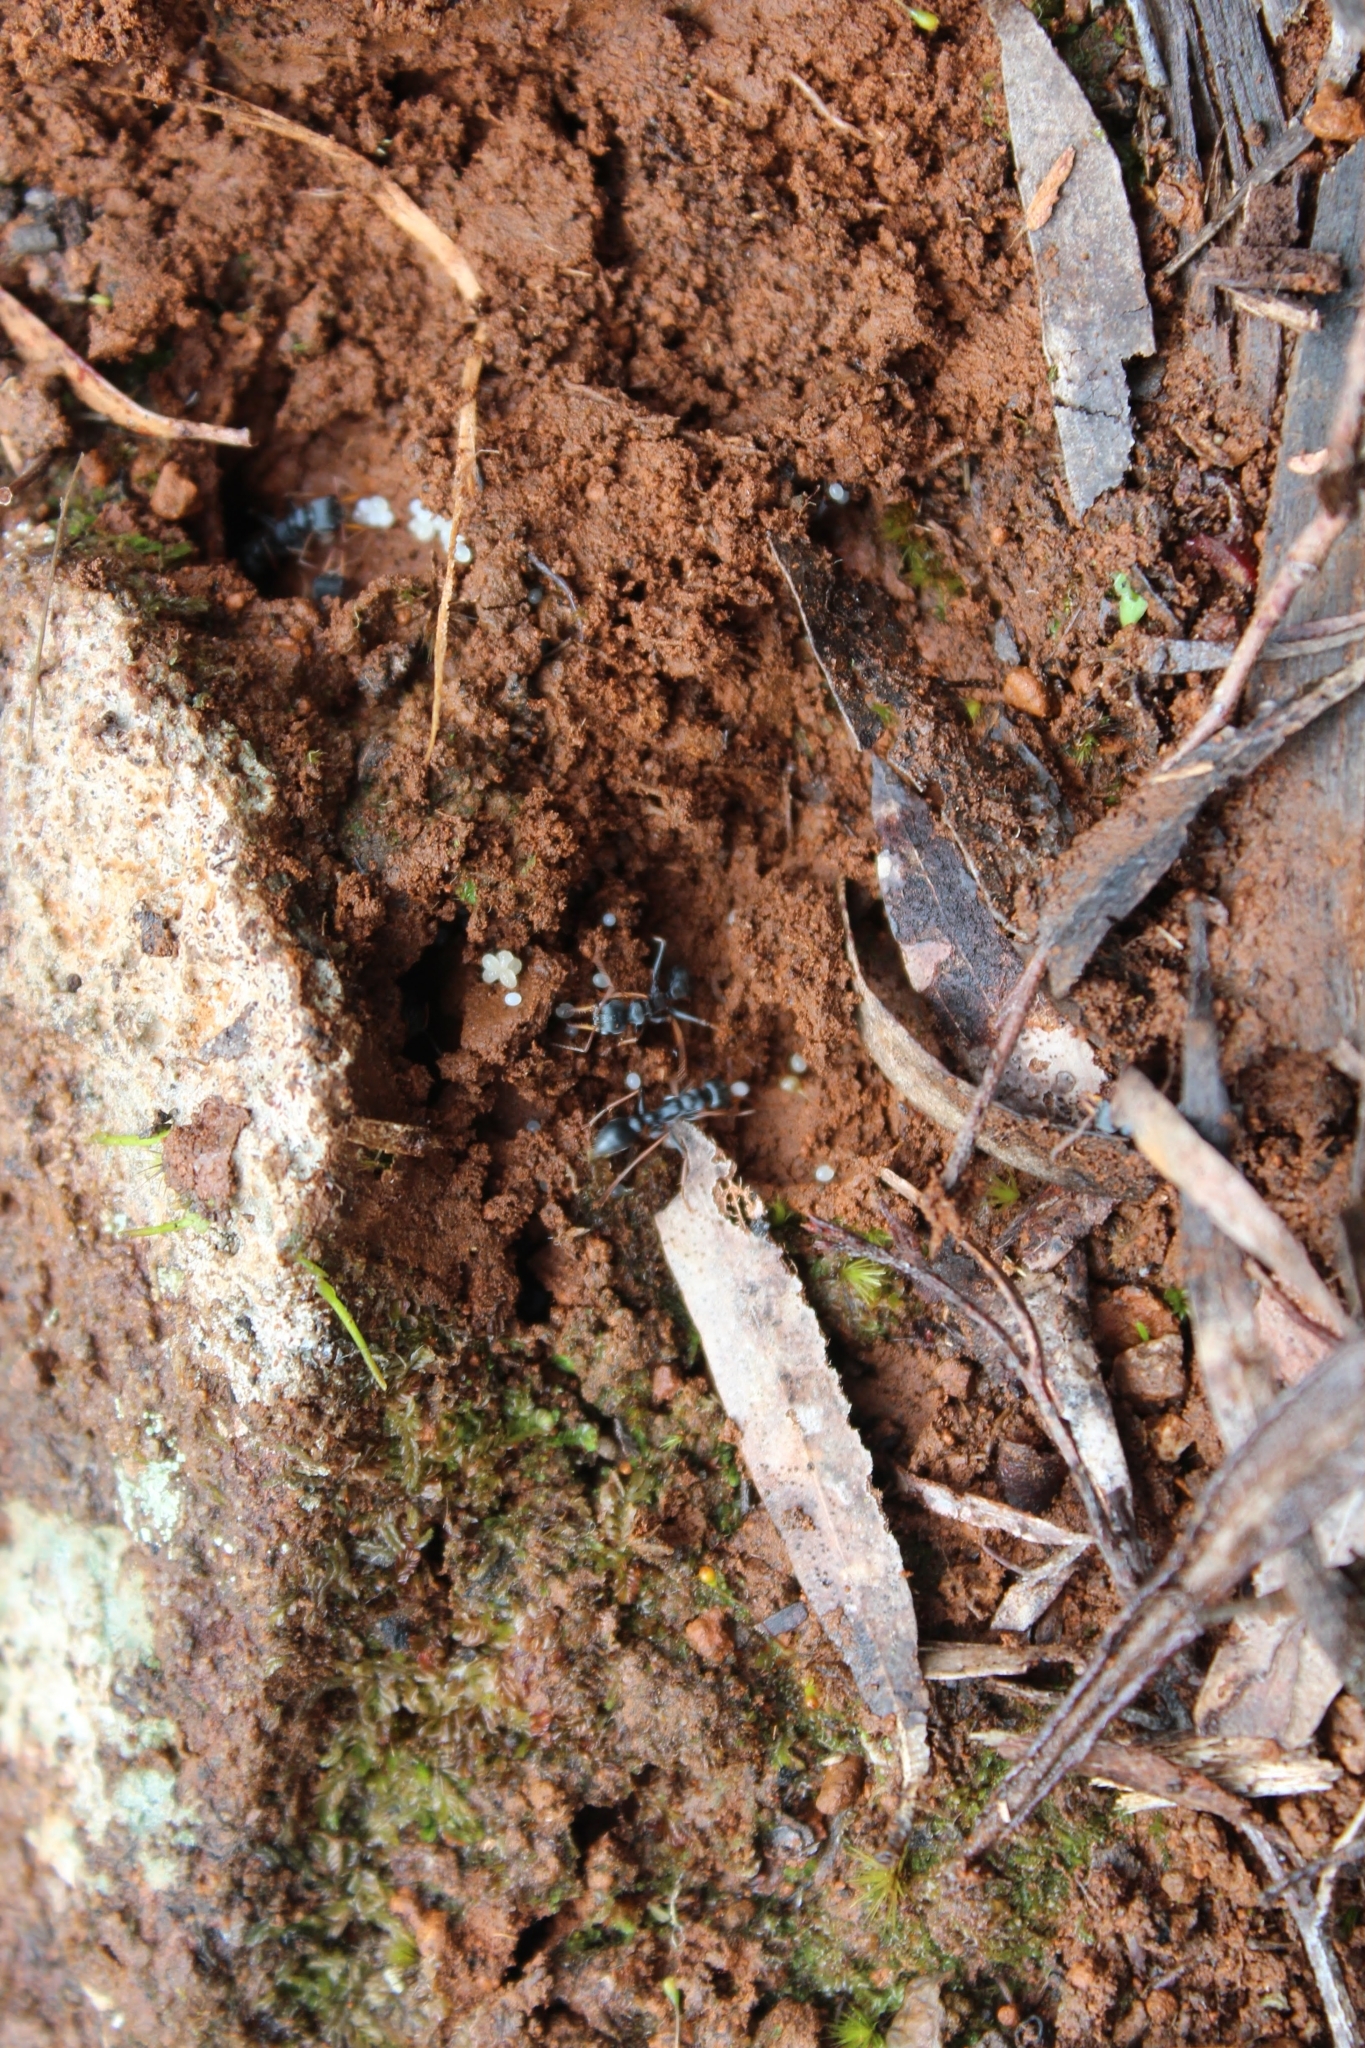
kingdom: Animalia
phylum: Arthropoda
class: Insecta
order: Hymenoptera
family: Formicidae
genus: Myrmecia
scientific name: Myrmecia pilosula
